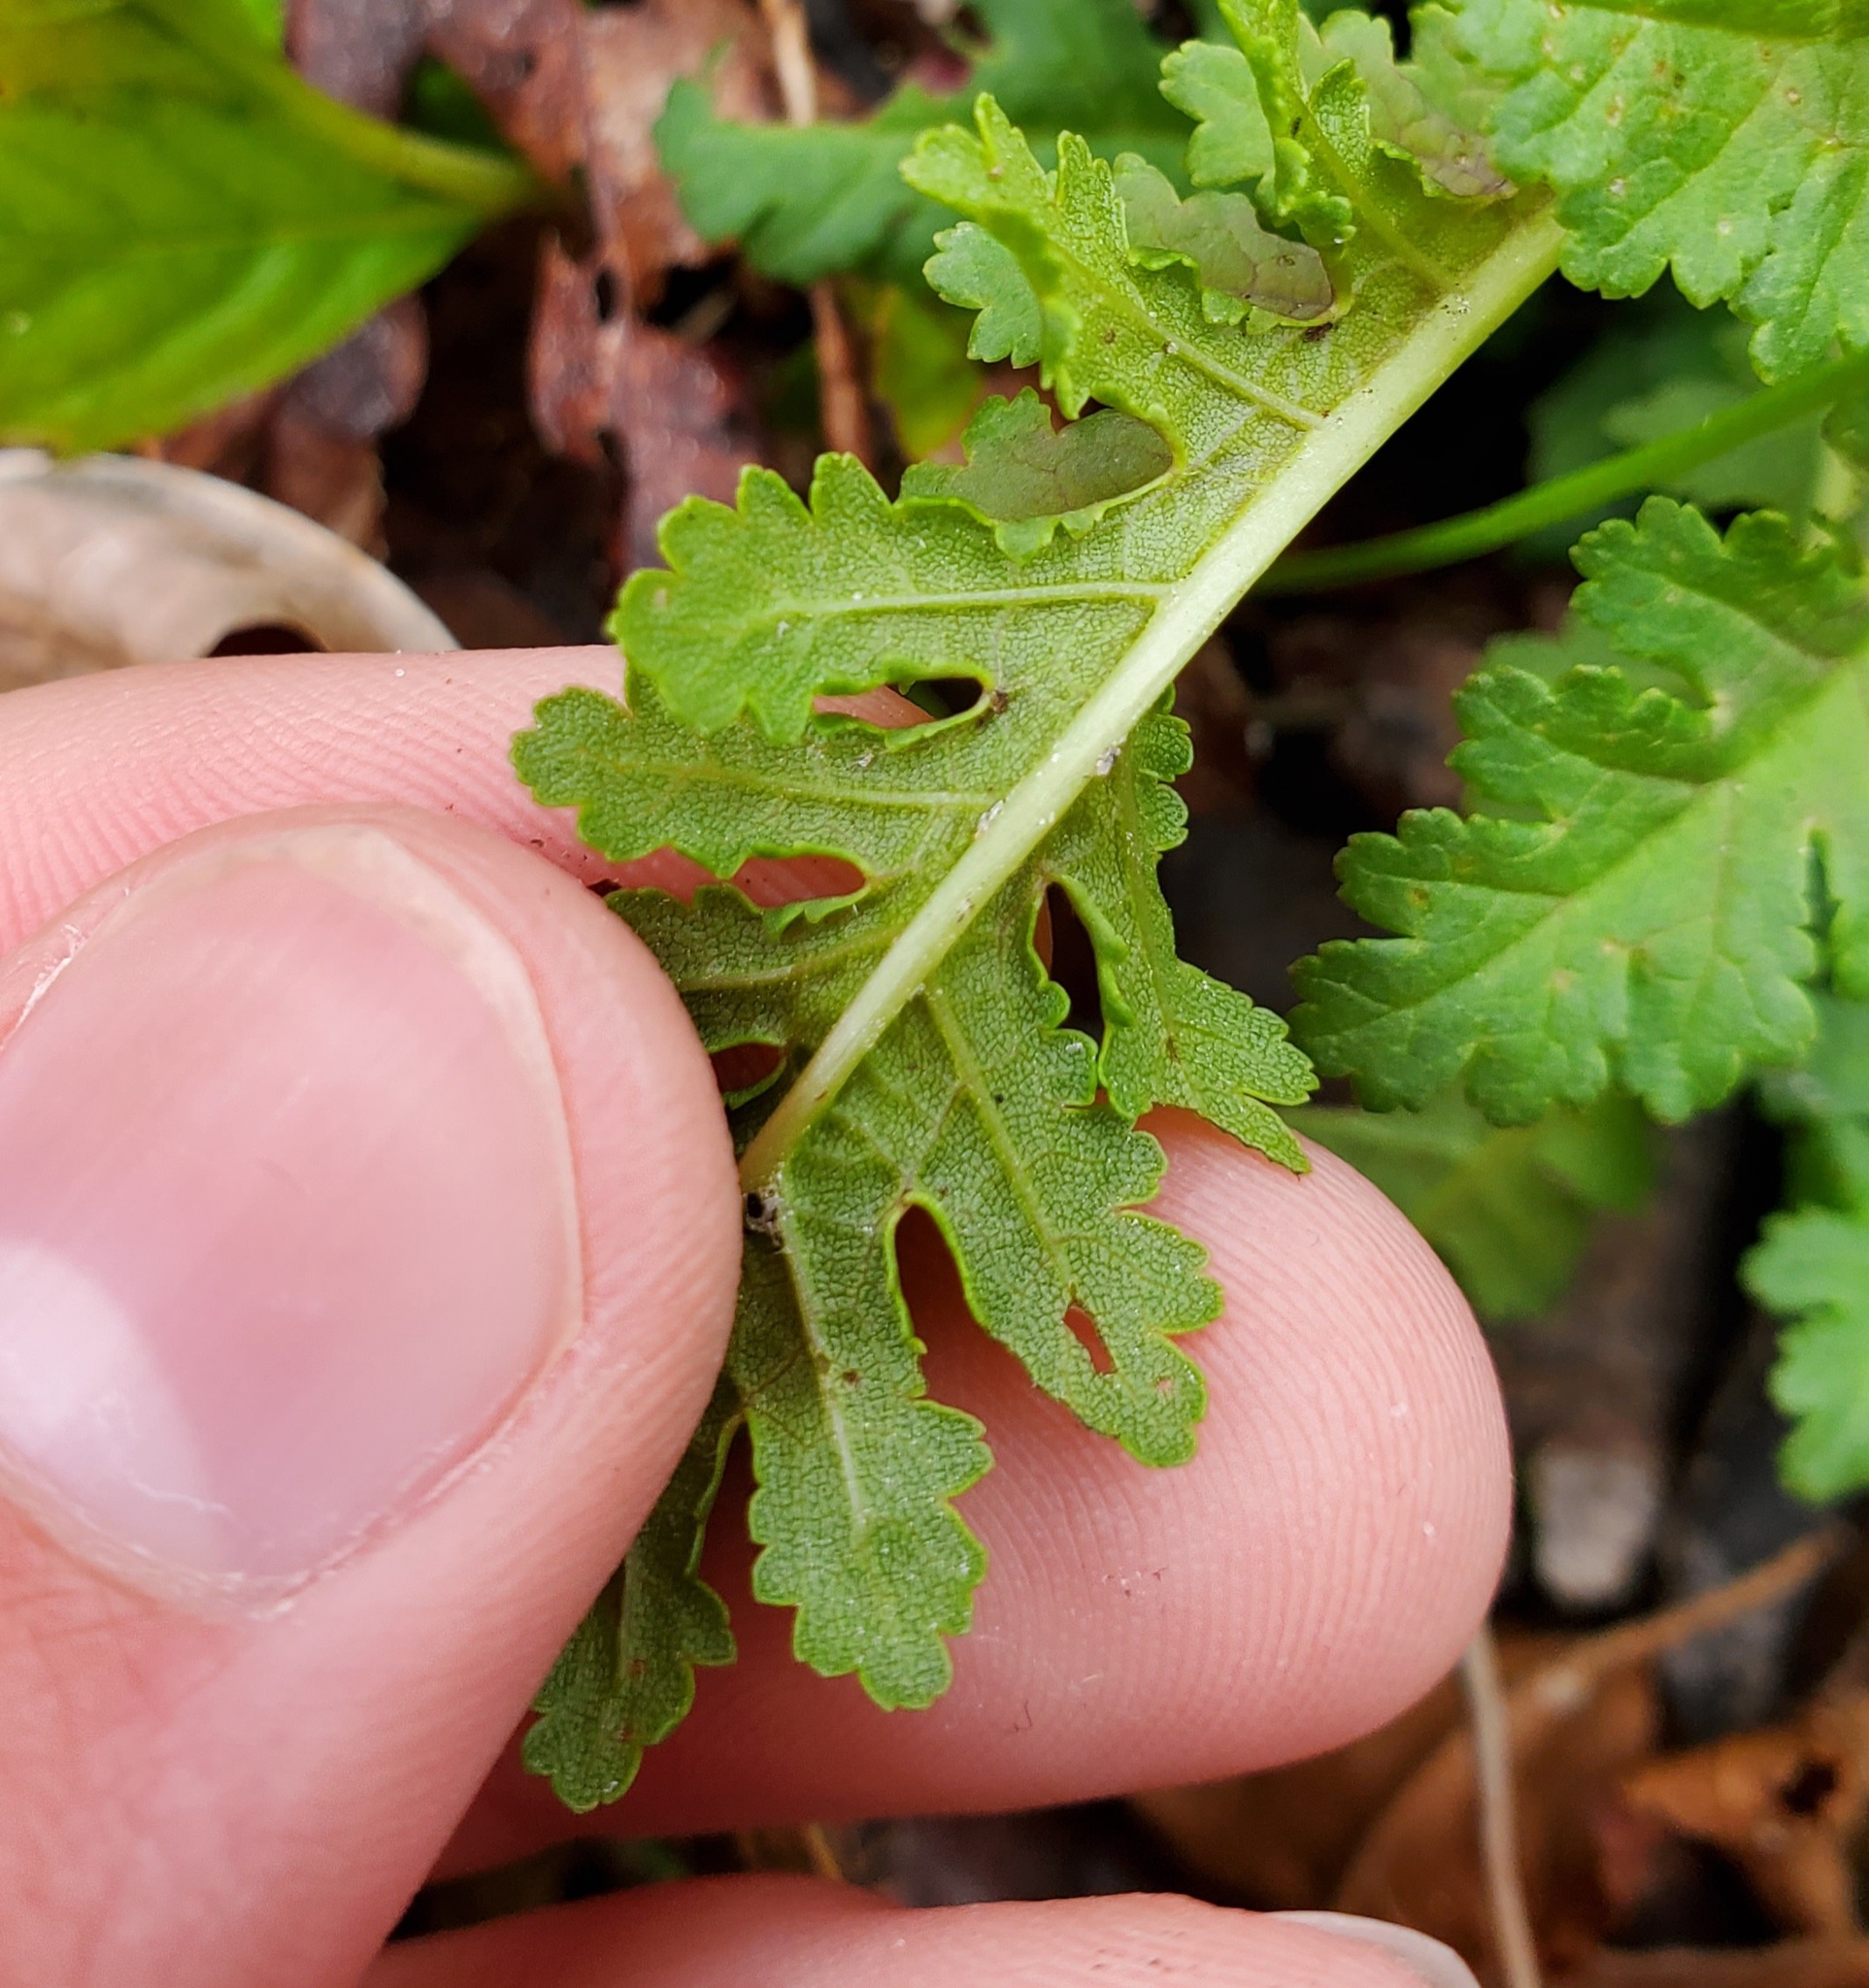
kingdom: Plantae
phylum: Tracheophyta
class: Magnoliopsida
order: Lamiales
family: Orobanchaceae
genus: Pedicularis
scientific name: Pedicularis canadensis
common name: Early lousewort
